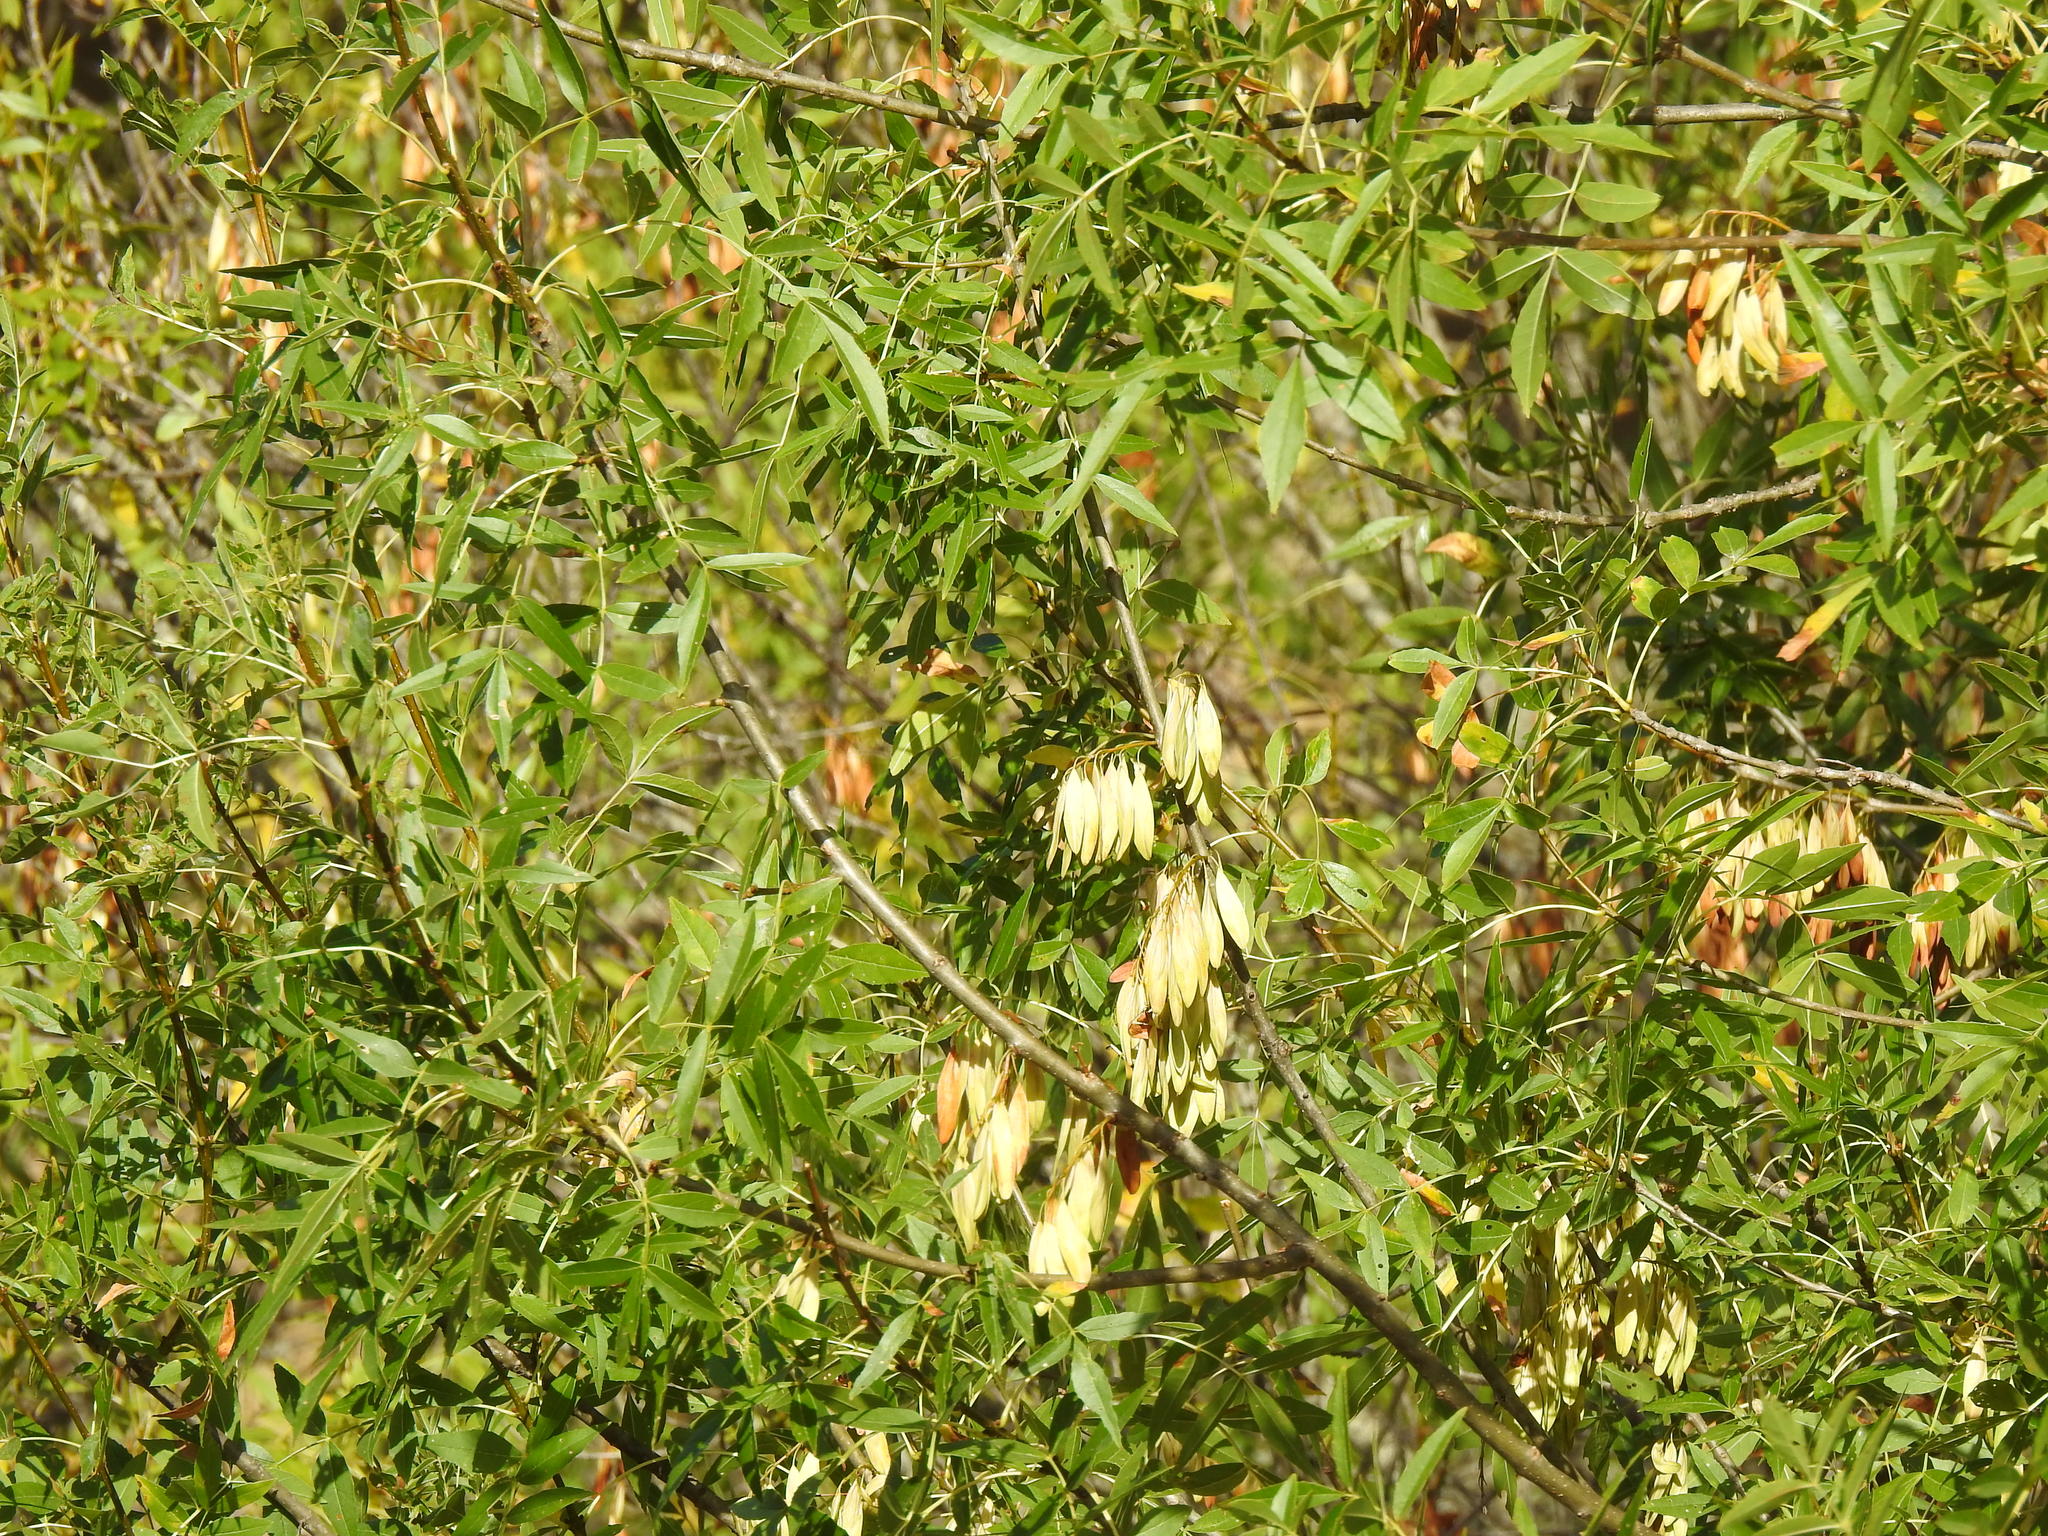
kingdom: Plantae
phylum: Tracheophyta
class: Magnoliopsida
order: Lamiales
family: Oleaceae
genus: Fraxinus
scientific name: Fraxinus angustifolia
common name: Narrow-leafed ash
